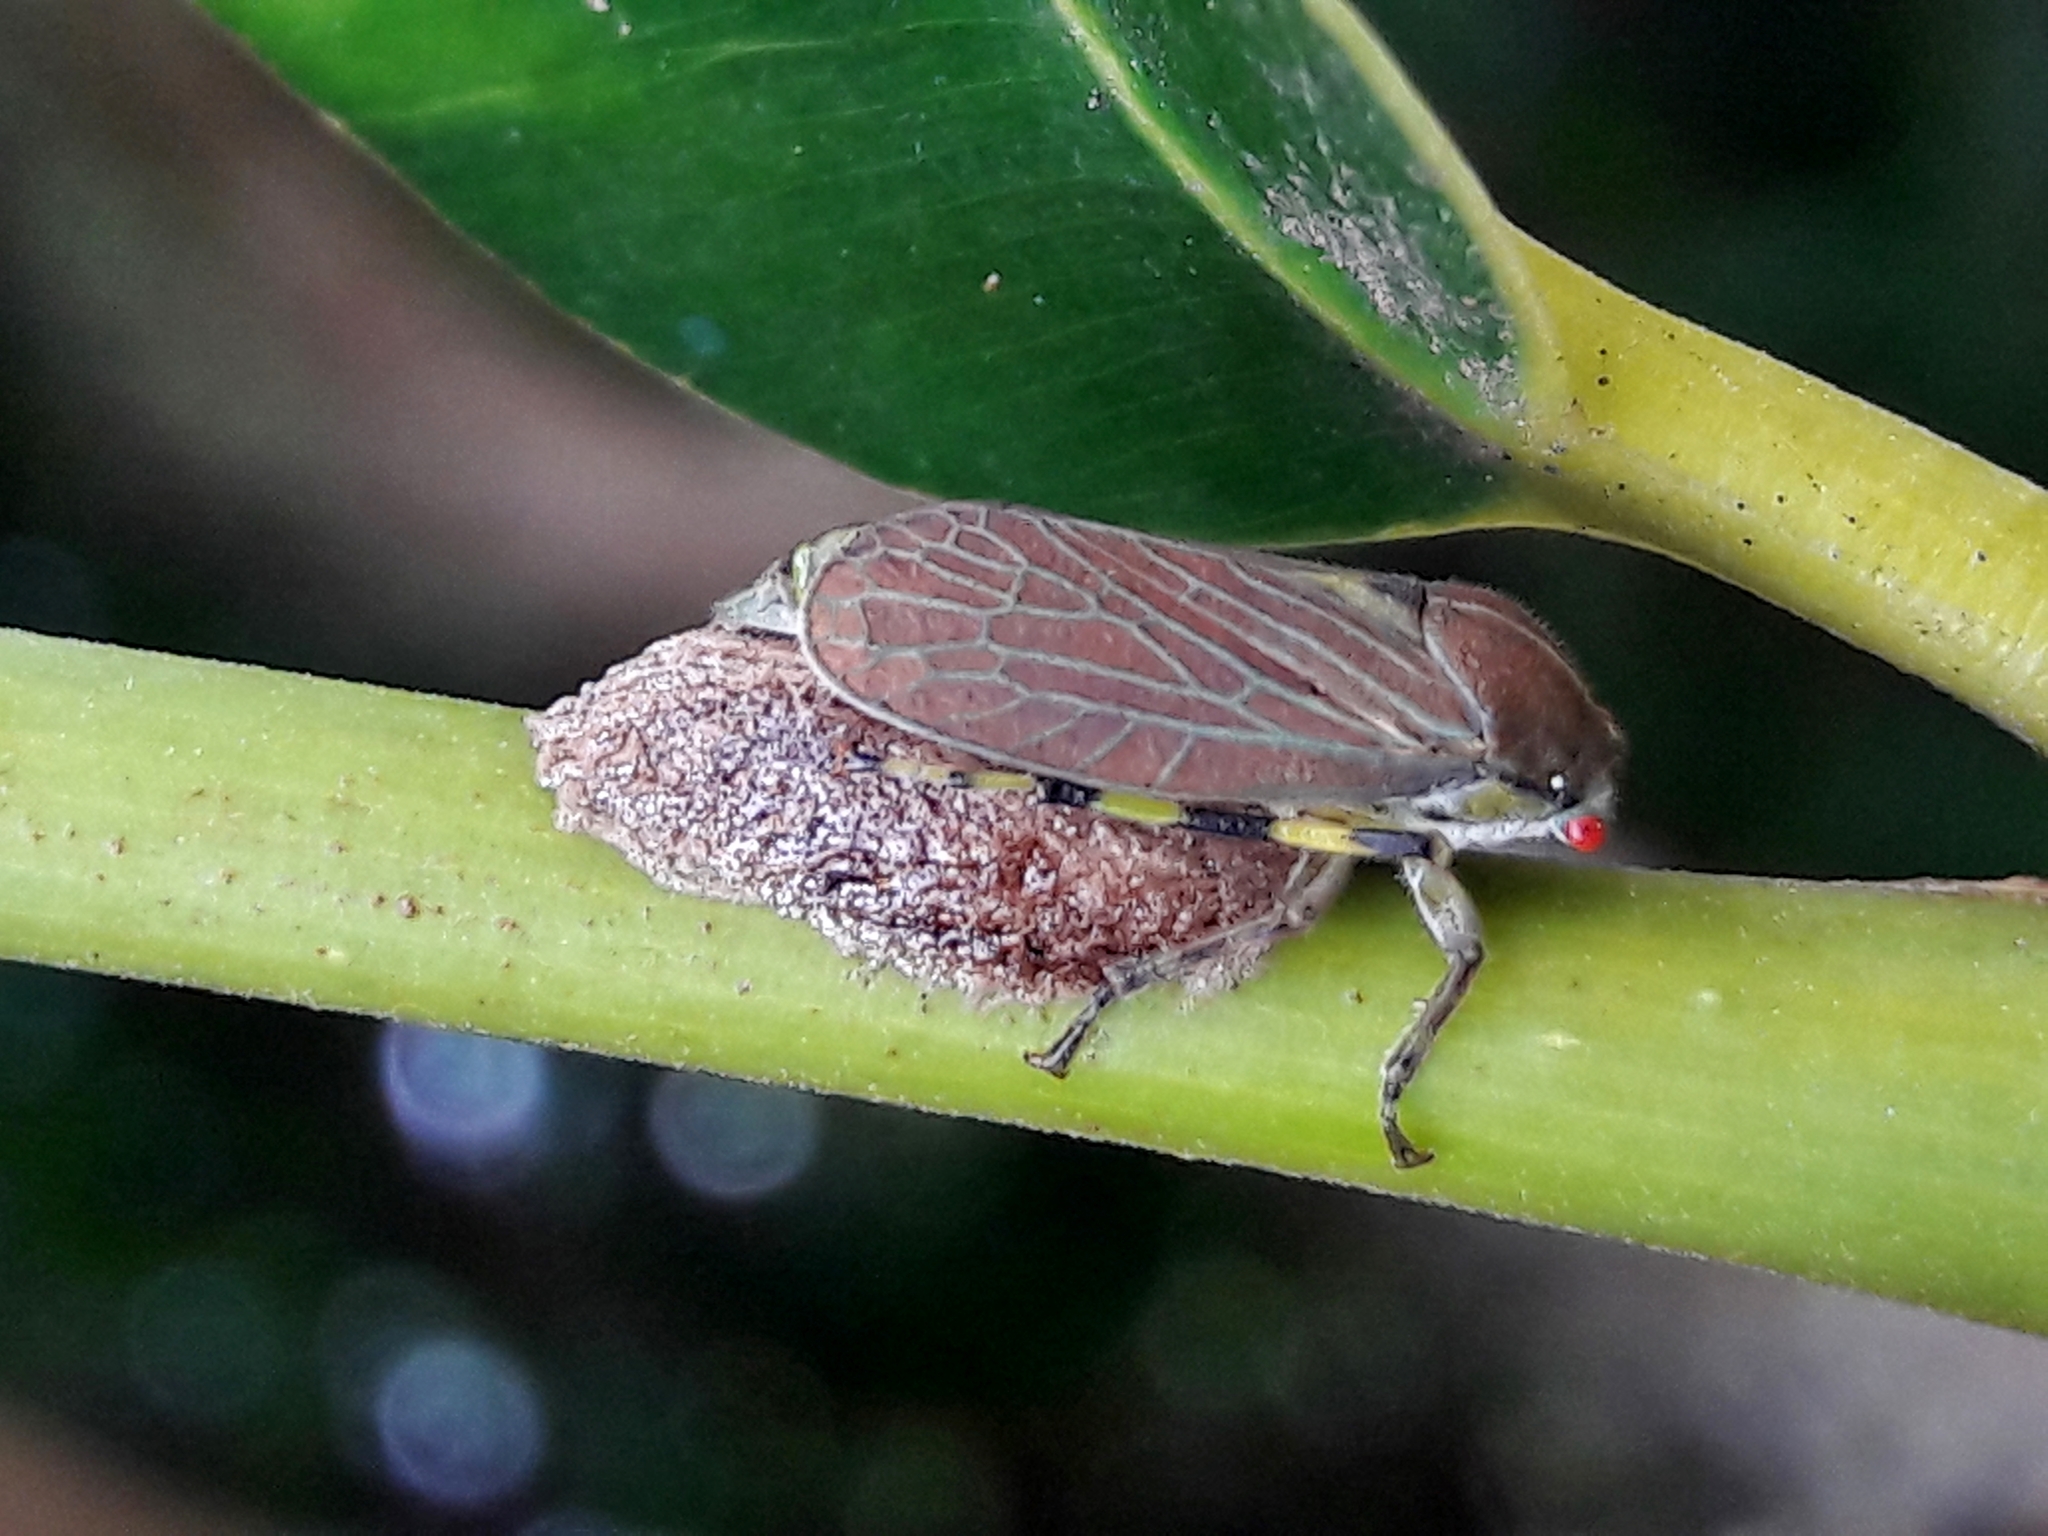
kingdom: Animalia
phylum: Arthropoda
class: Insecta
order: Hemiptera
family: Aetalionidae
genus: Aetalion
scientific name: Aetalion reticulatum
